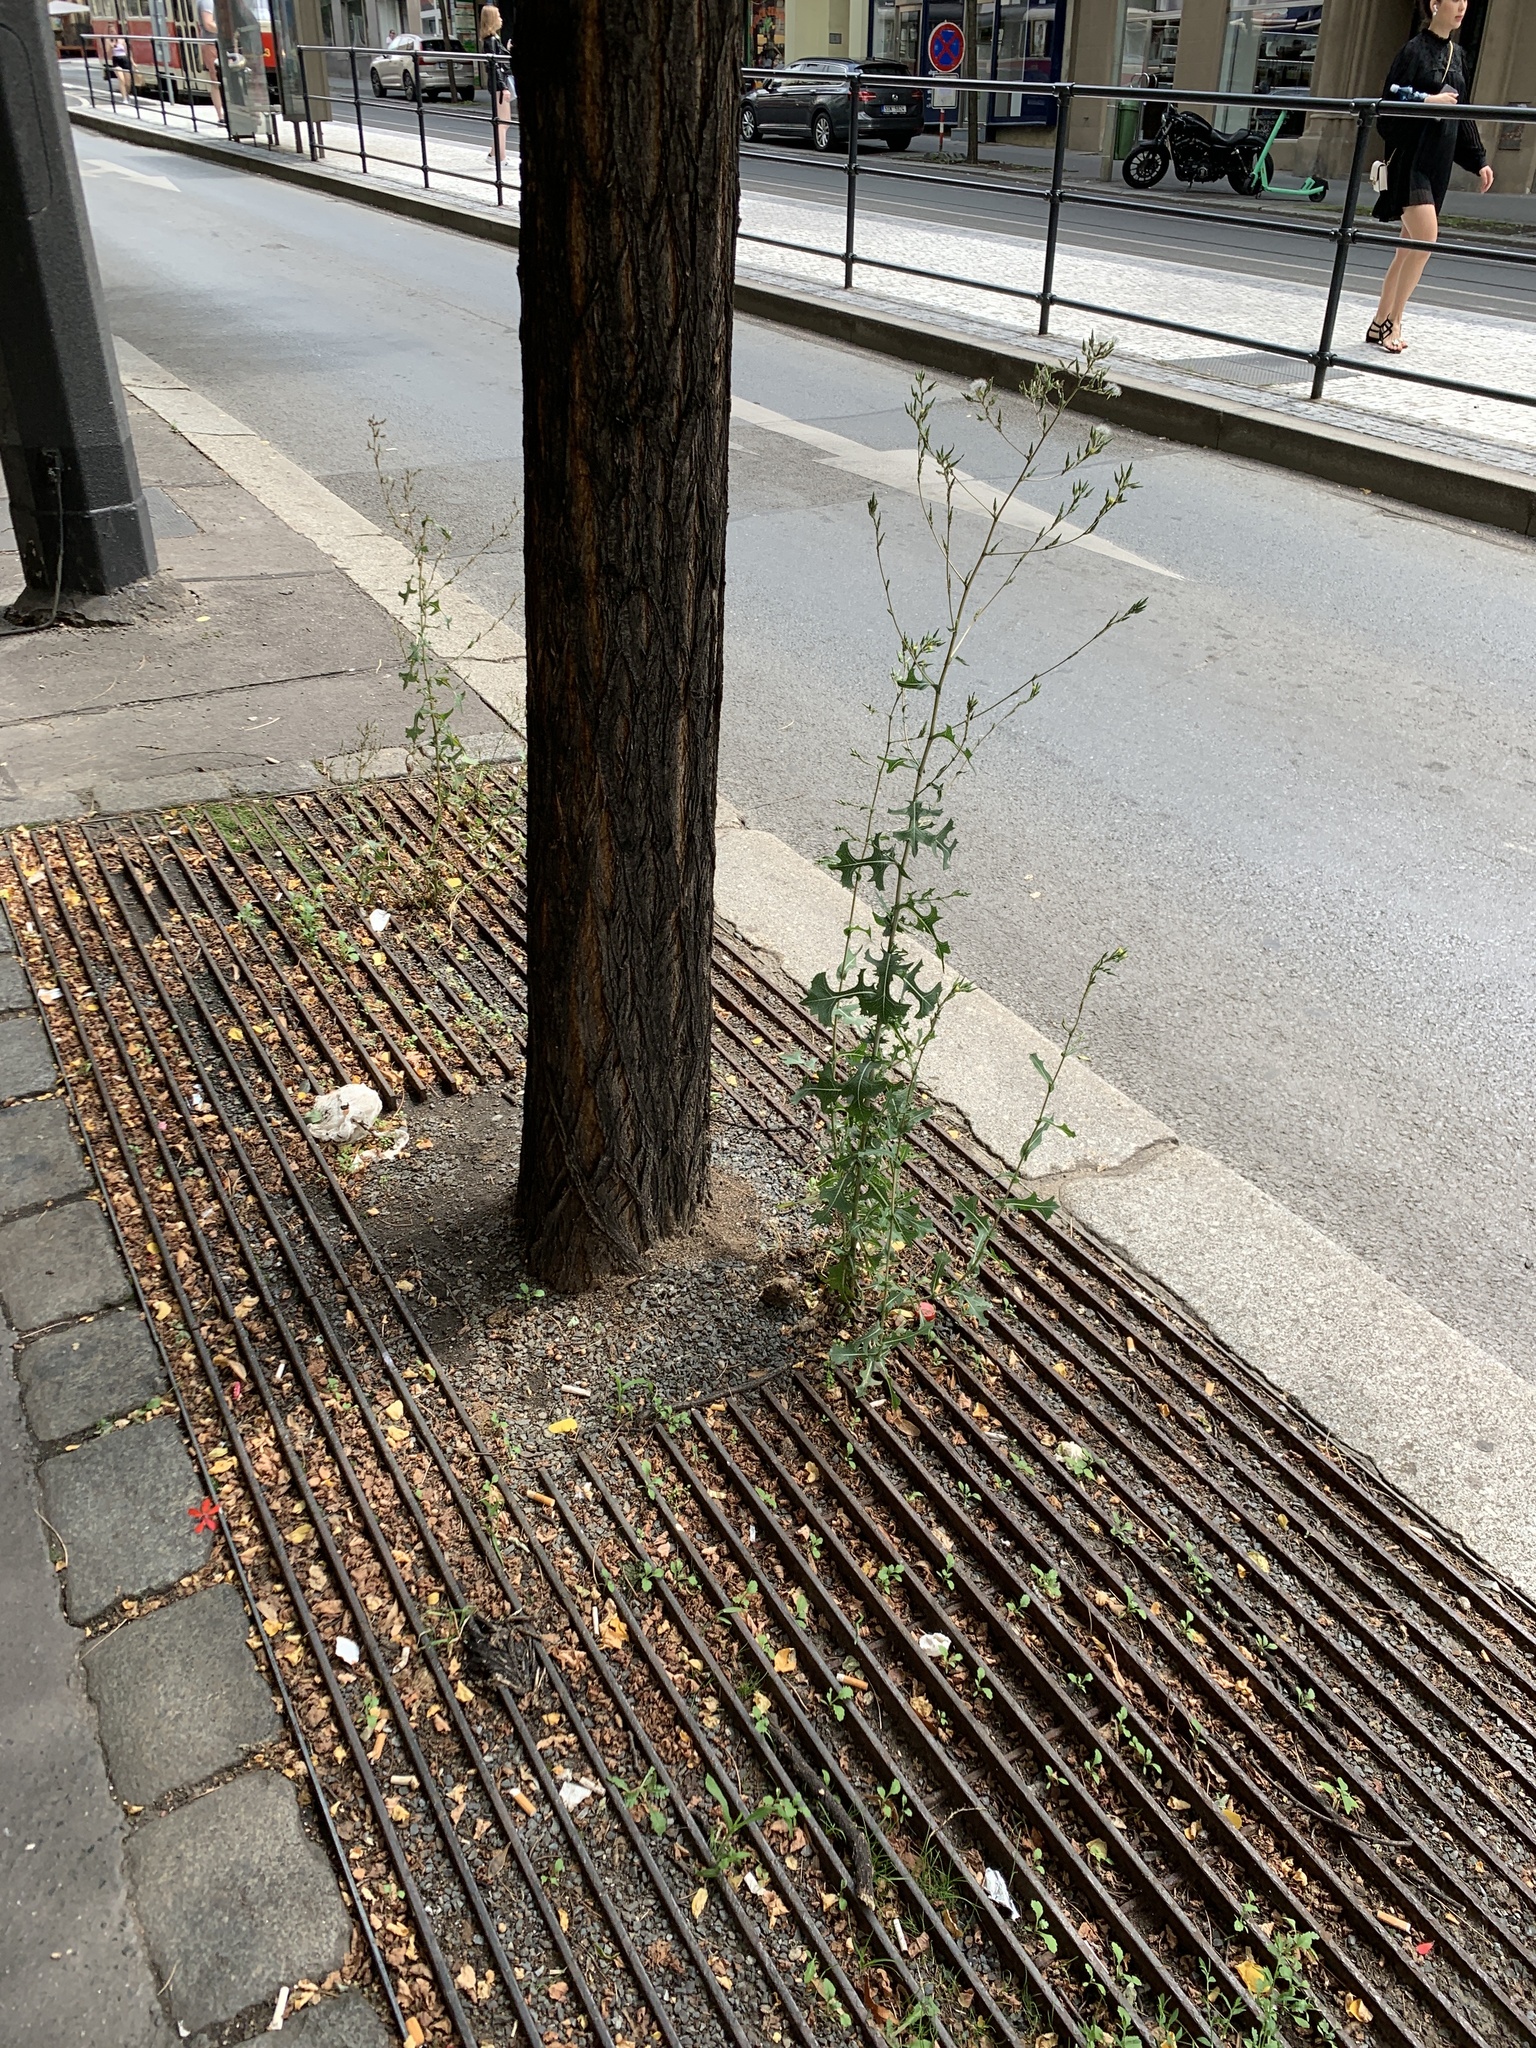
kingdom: Plantae
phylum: Tracheophyta
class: Magnoliopsida
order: Asterales
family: Asteraceae
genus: Lactuca
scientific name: Lactuca serriola
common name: Prickly lettuce
